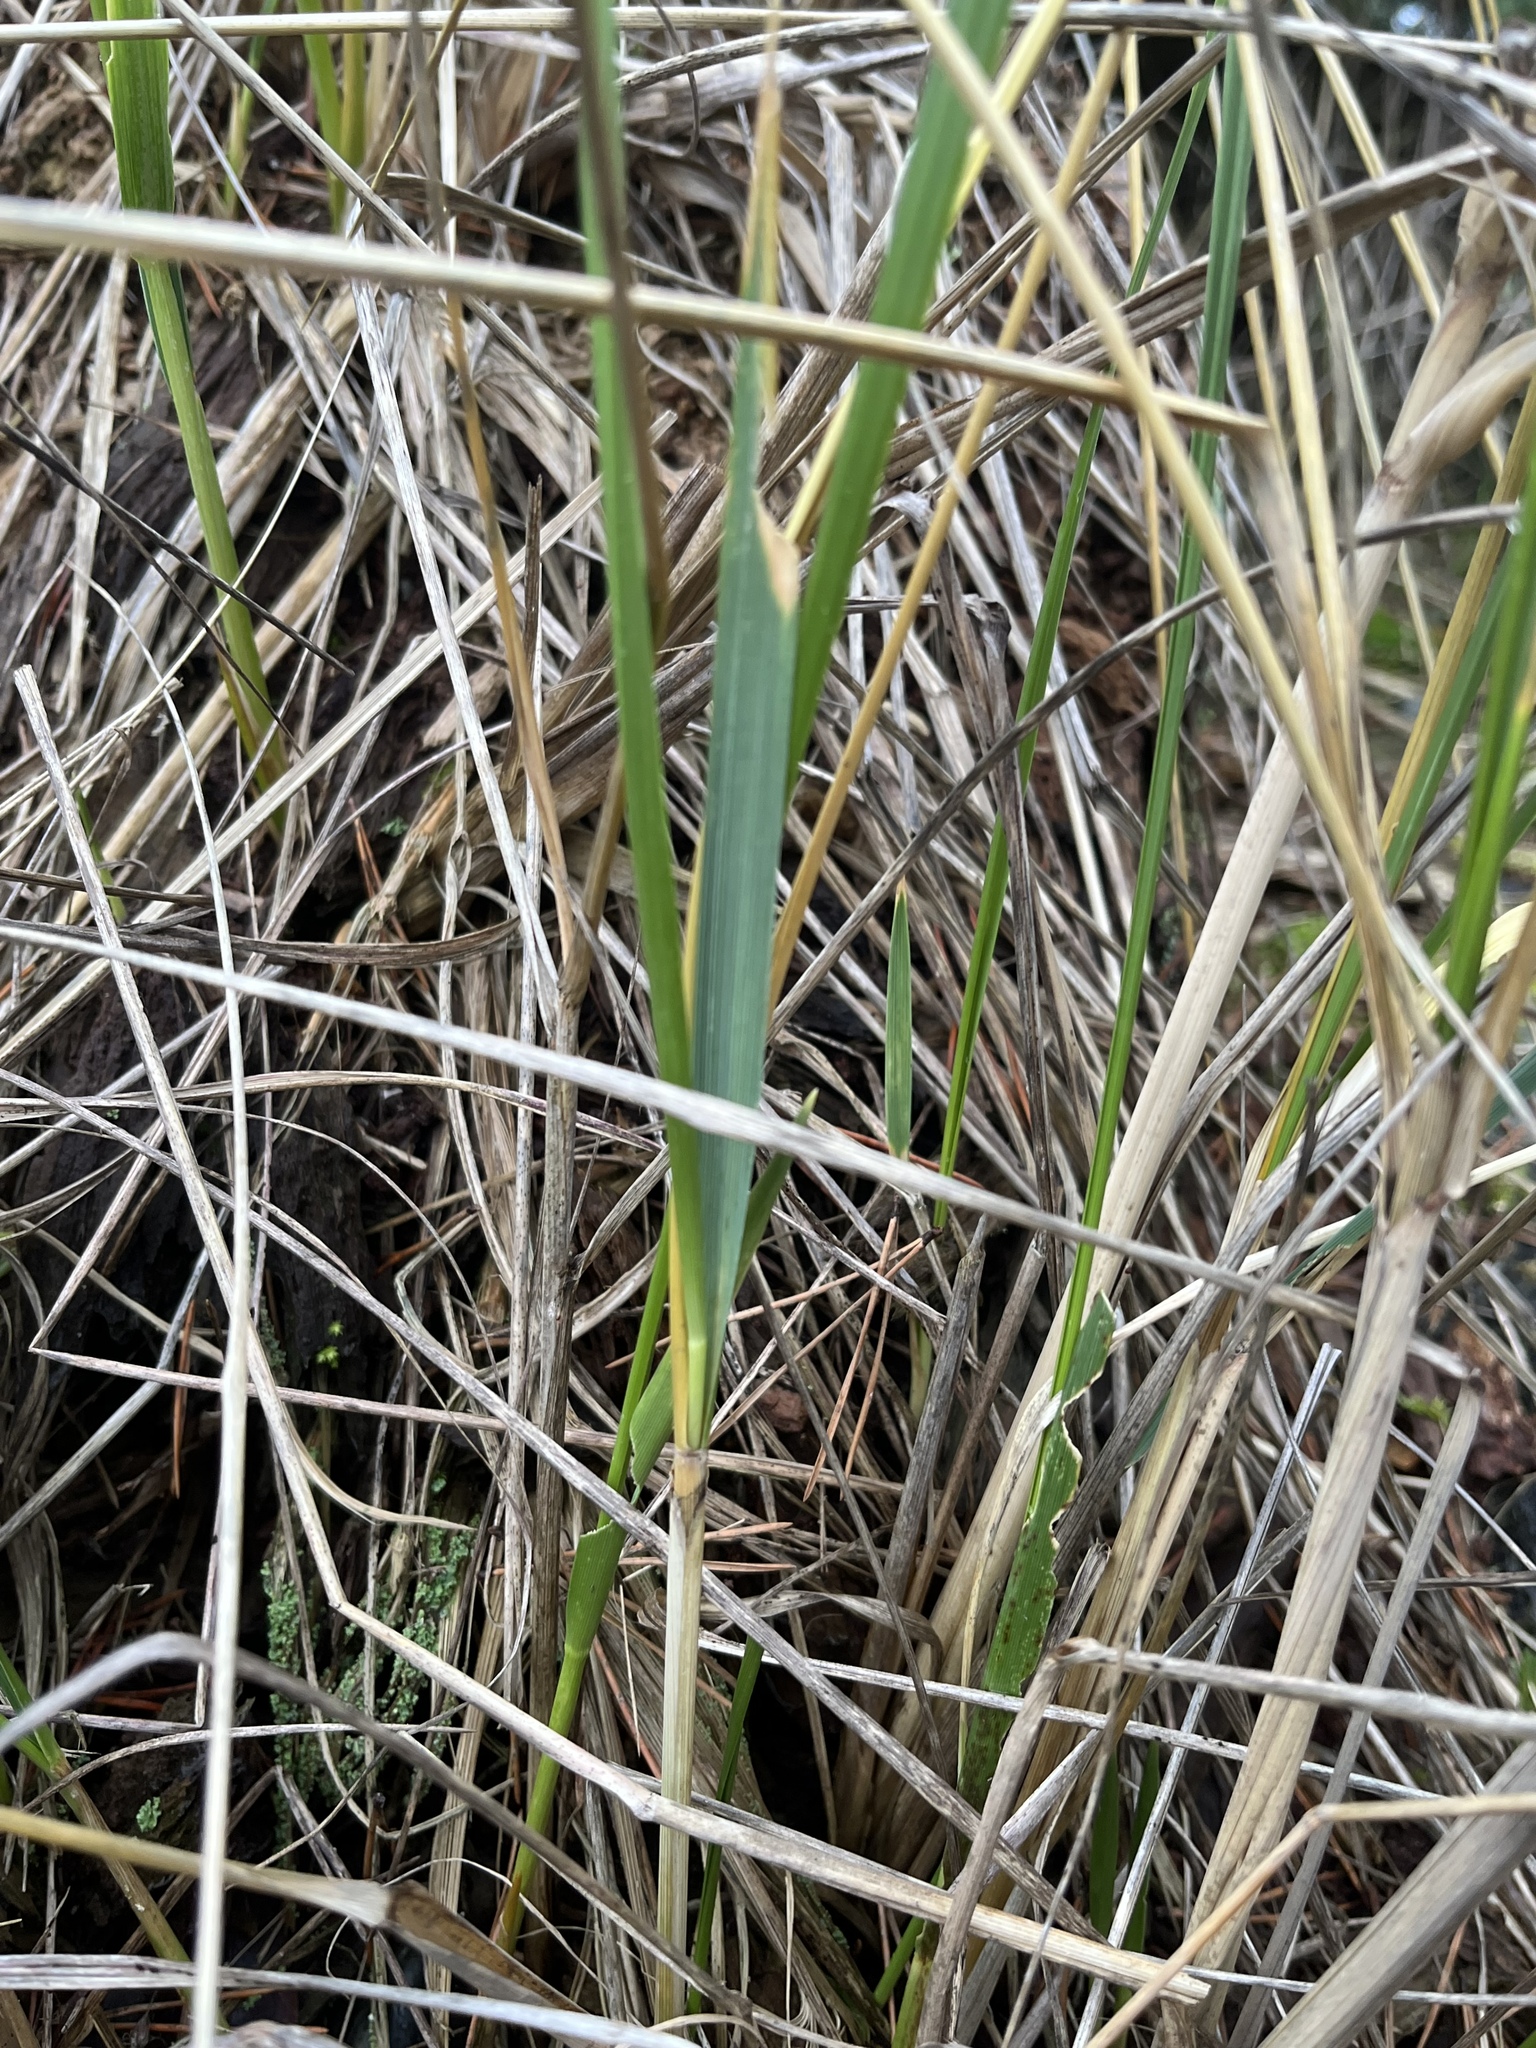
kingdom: Plantae
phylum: Tracheophyta
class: Liliopsida
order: Poales
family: Poaceae
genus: Calamagrostis
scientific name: Calamagrostis breviligulata
